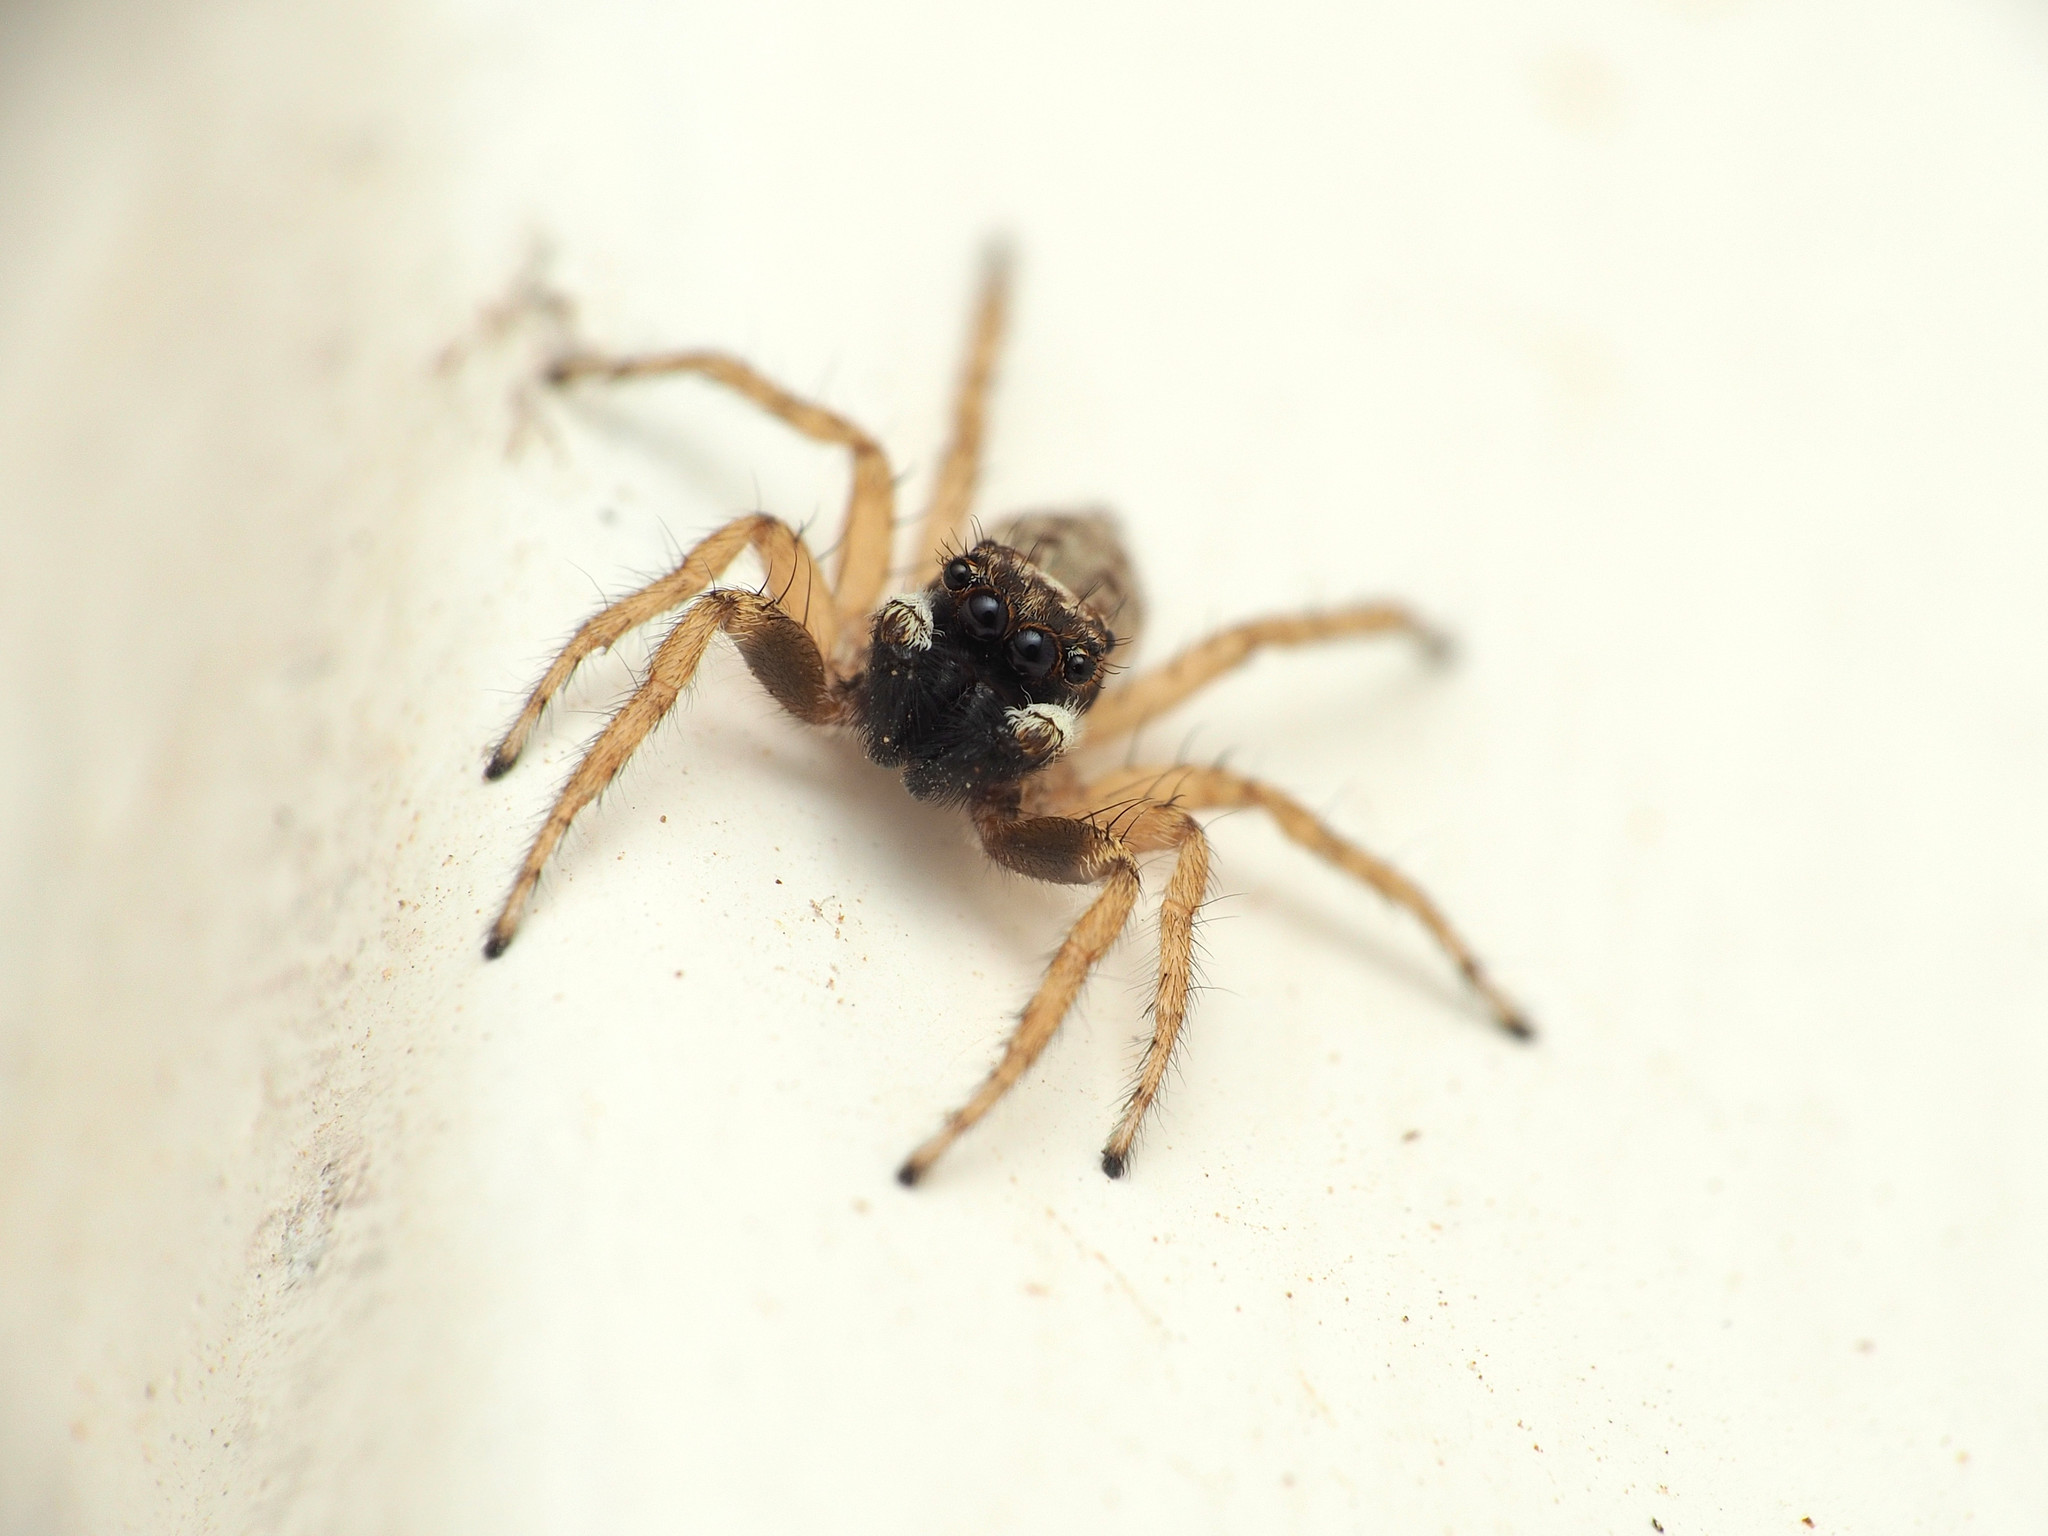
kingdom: Animalia
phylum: Arthropoda
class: Arachnida
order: Araneae
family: Salticidae
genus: Menemerus
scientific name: Menemerus semilimbatus
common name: Jumping spider
